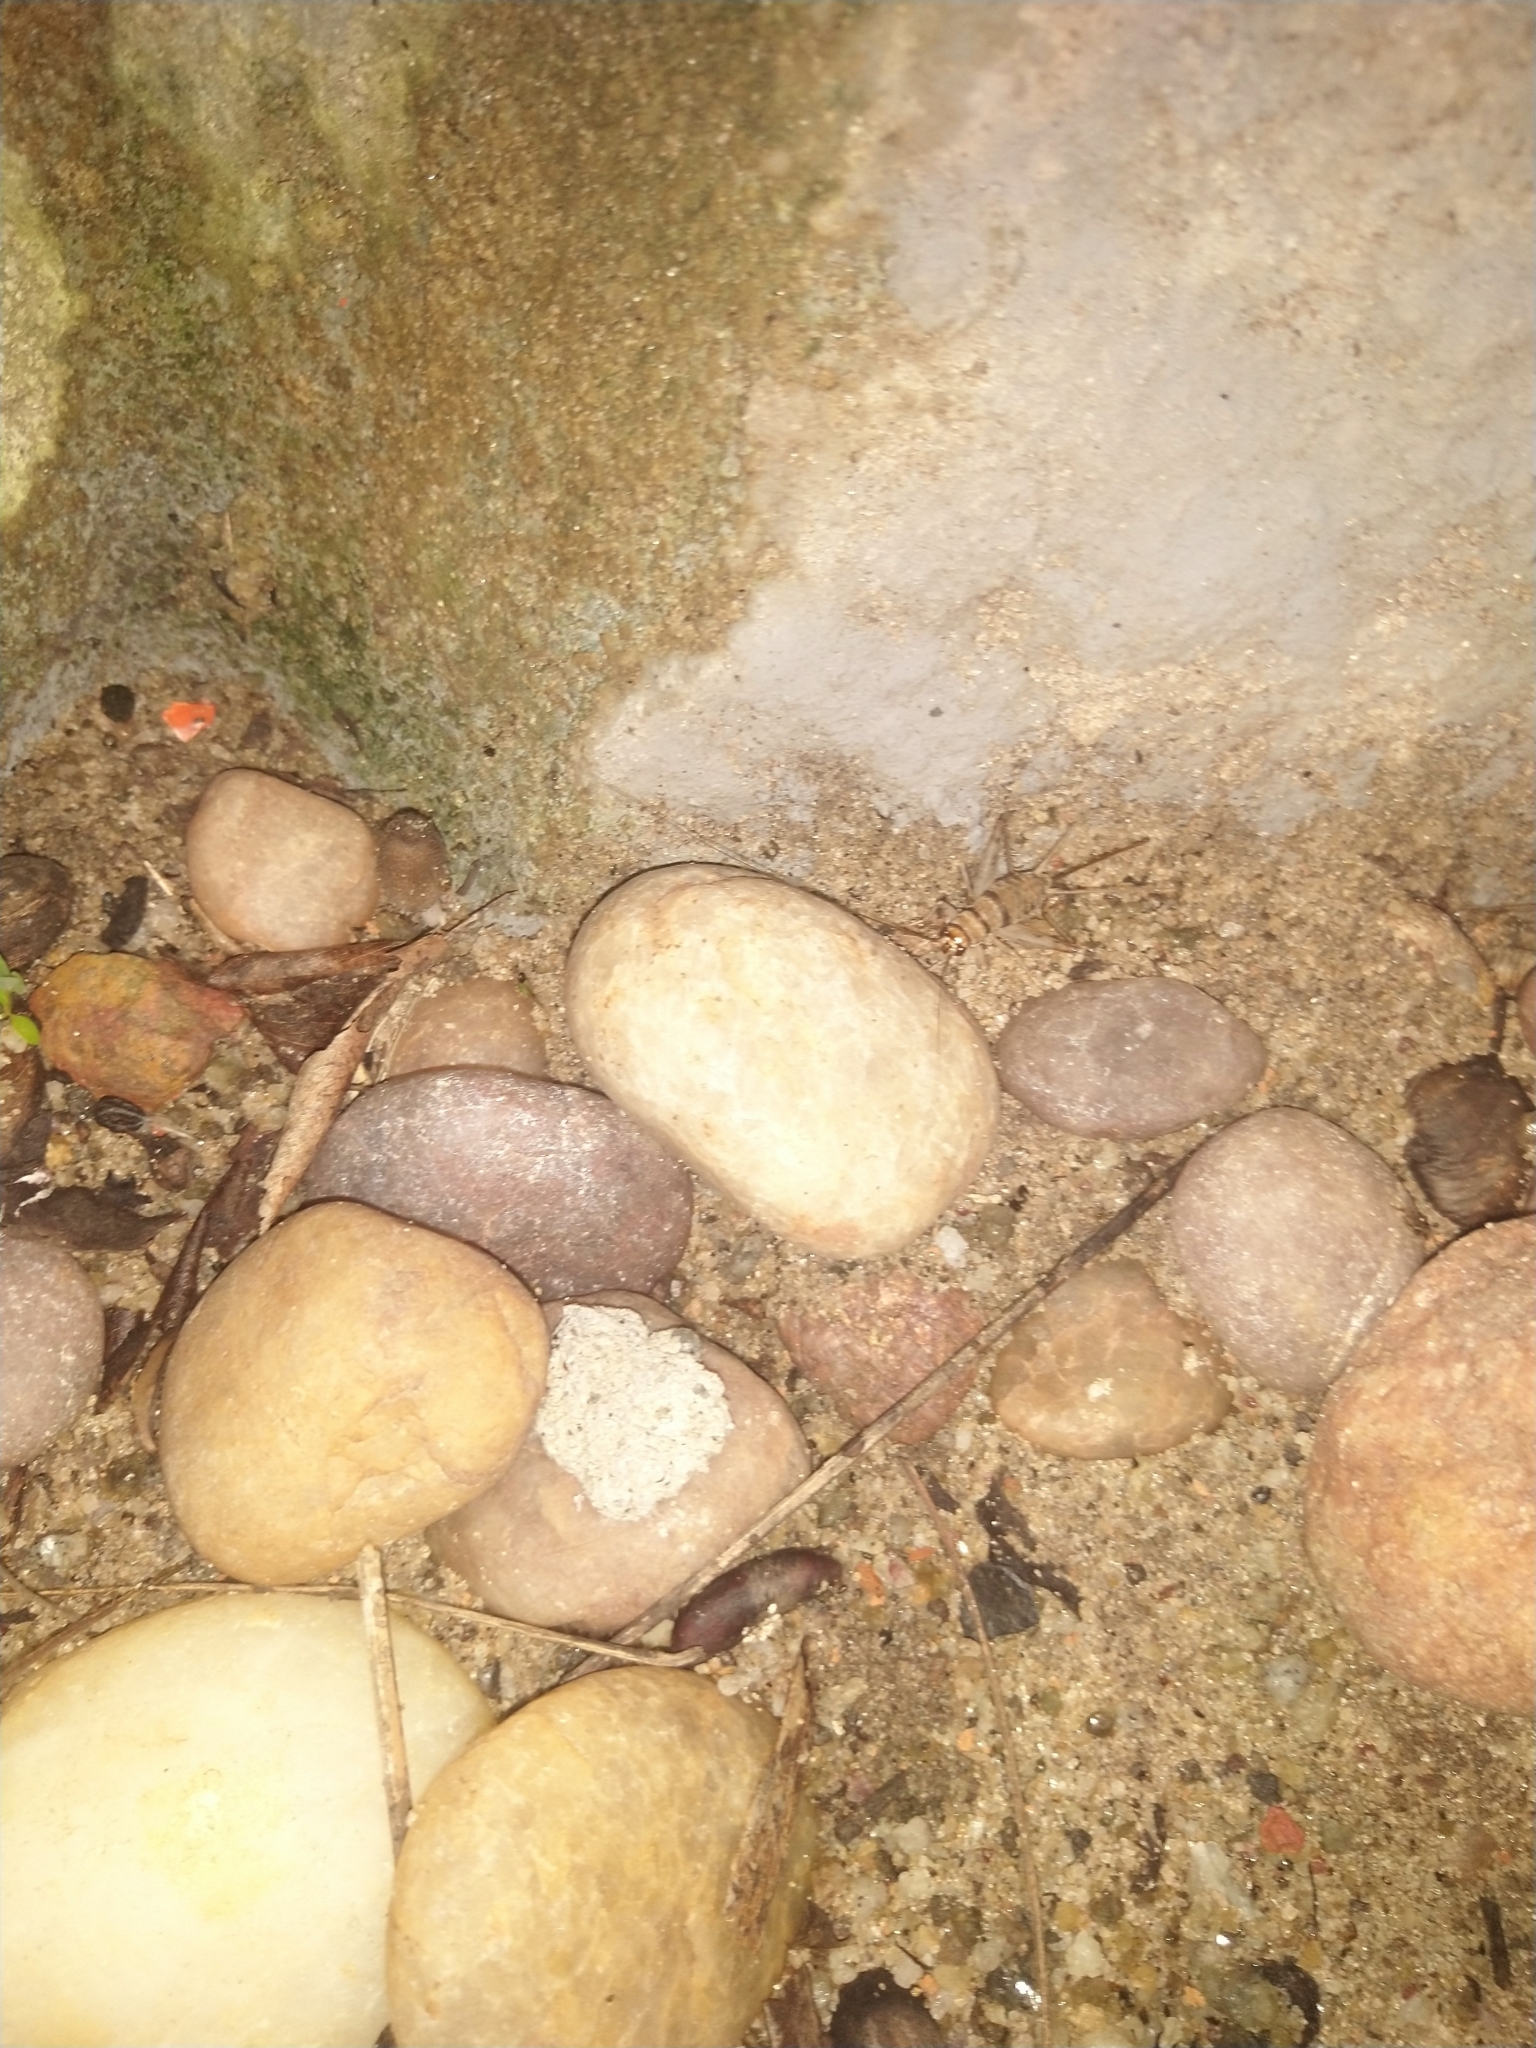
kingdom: Animalia
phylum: Arthropoda
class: Insecta
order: Orthoptera
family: Gryllidae
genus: Gryllodes
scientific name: Gryllodes sigillatus
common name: Tropical house cricket
